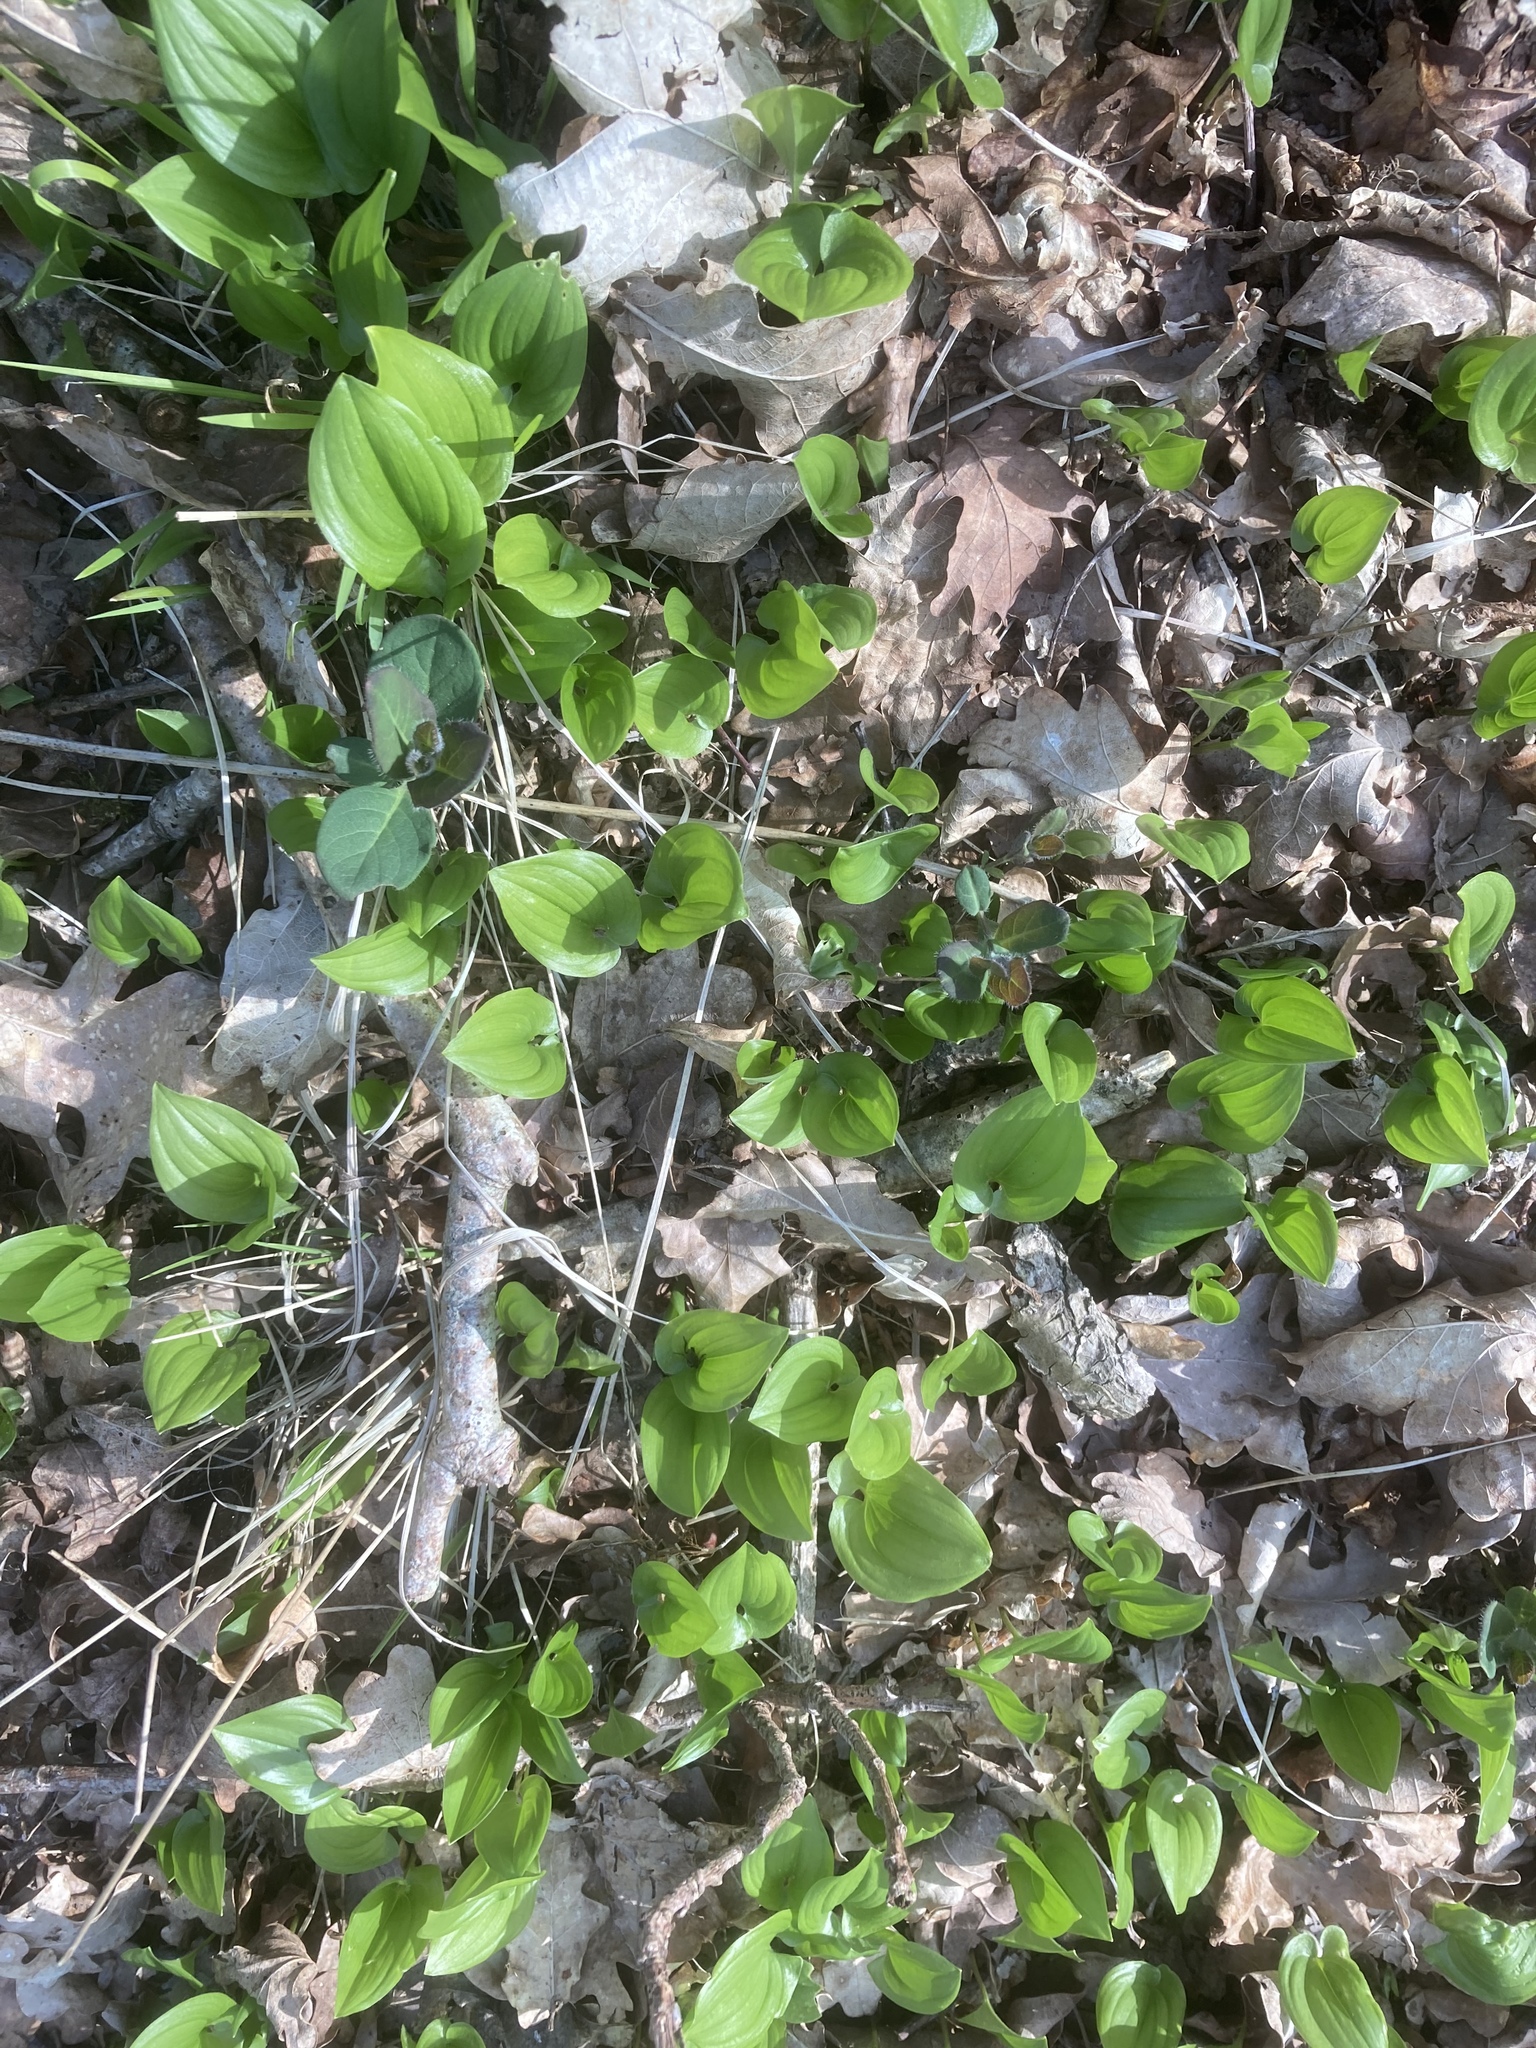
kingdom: Plantae
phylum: Tracheophyta
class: Liliopsida
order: Asparagales
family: Asparagaceae
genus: Maianthemum
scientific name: Maianthemum bifolium
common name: May lily
